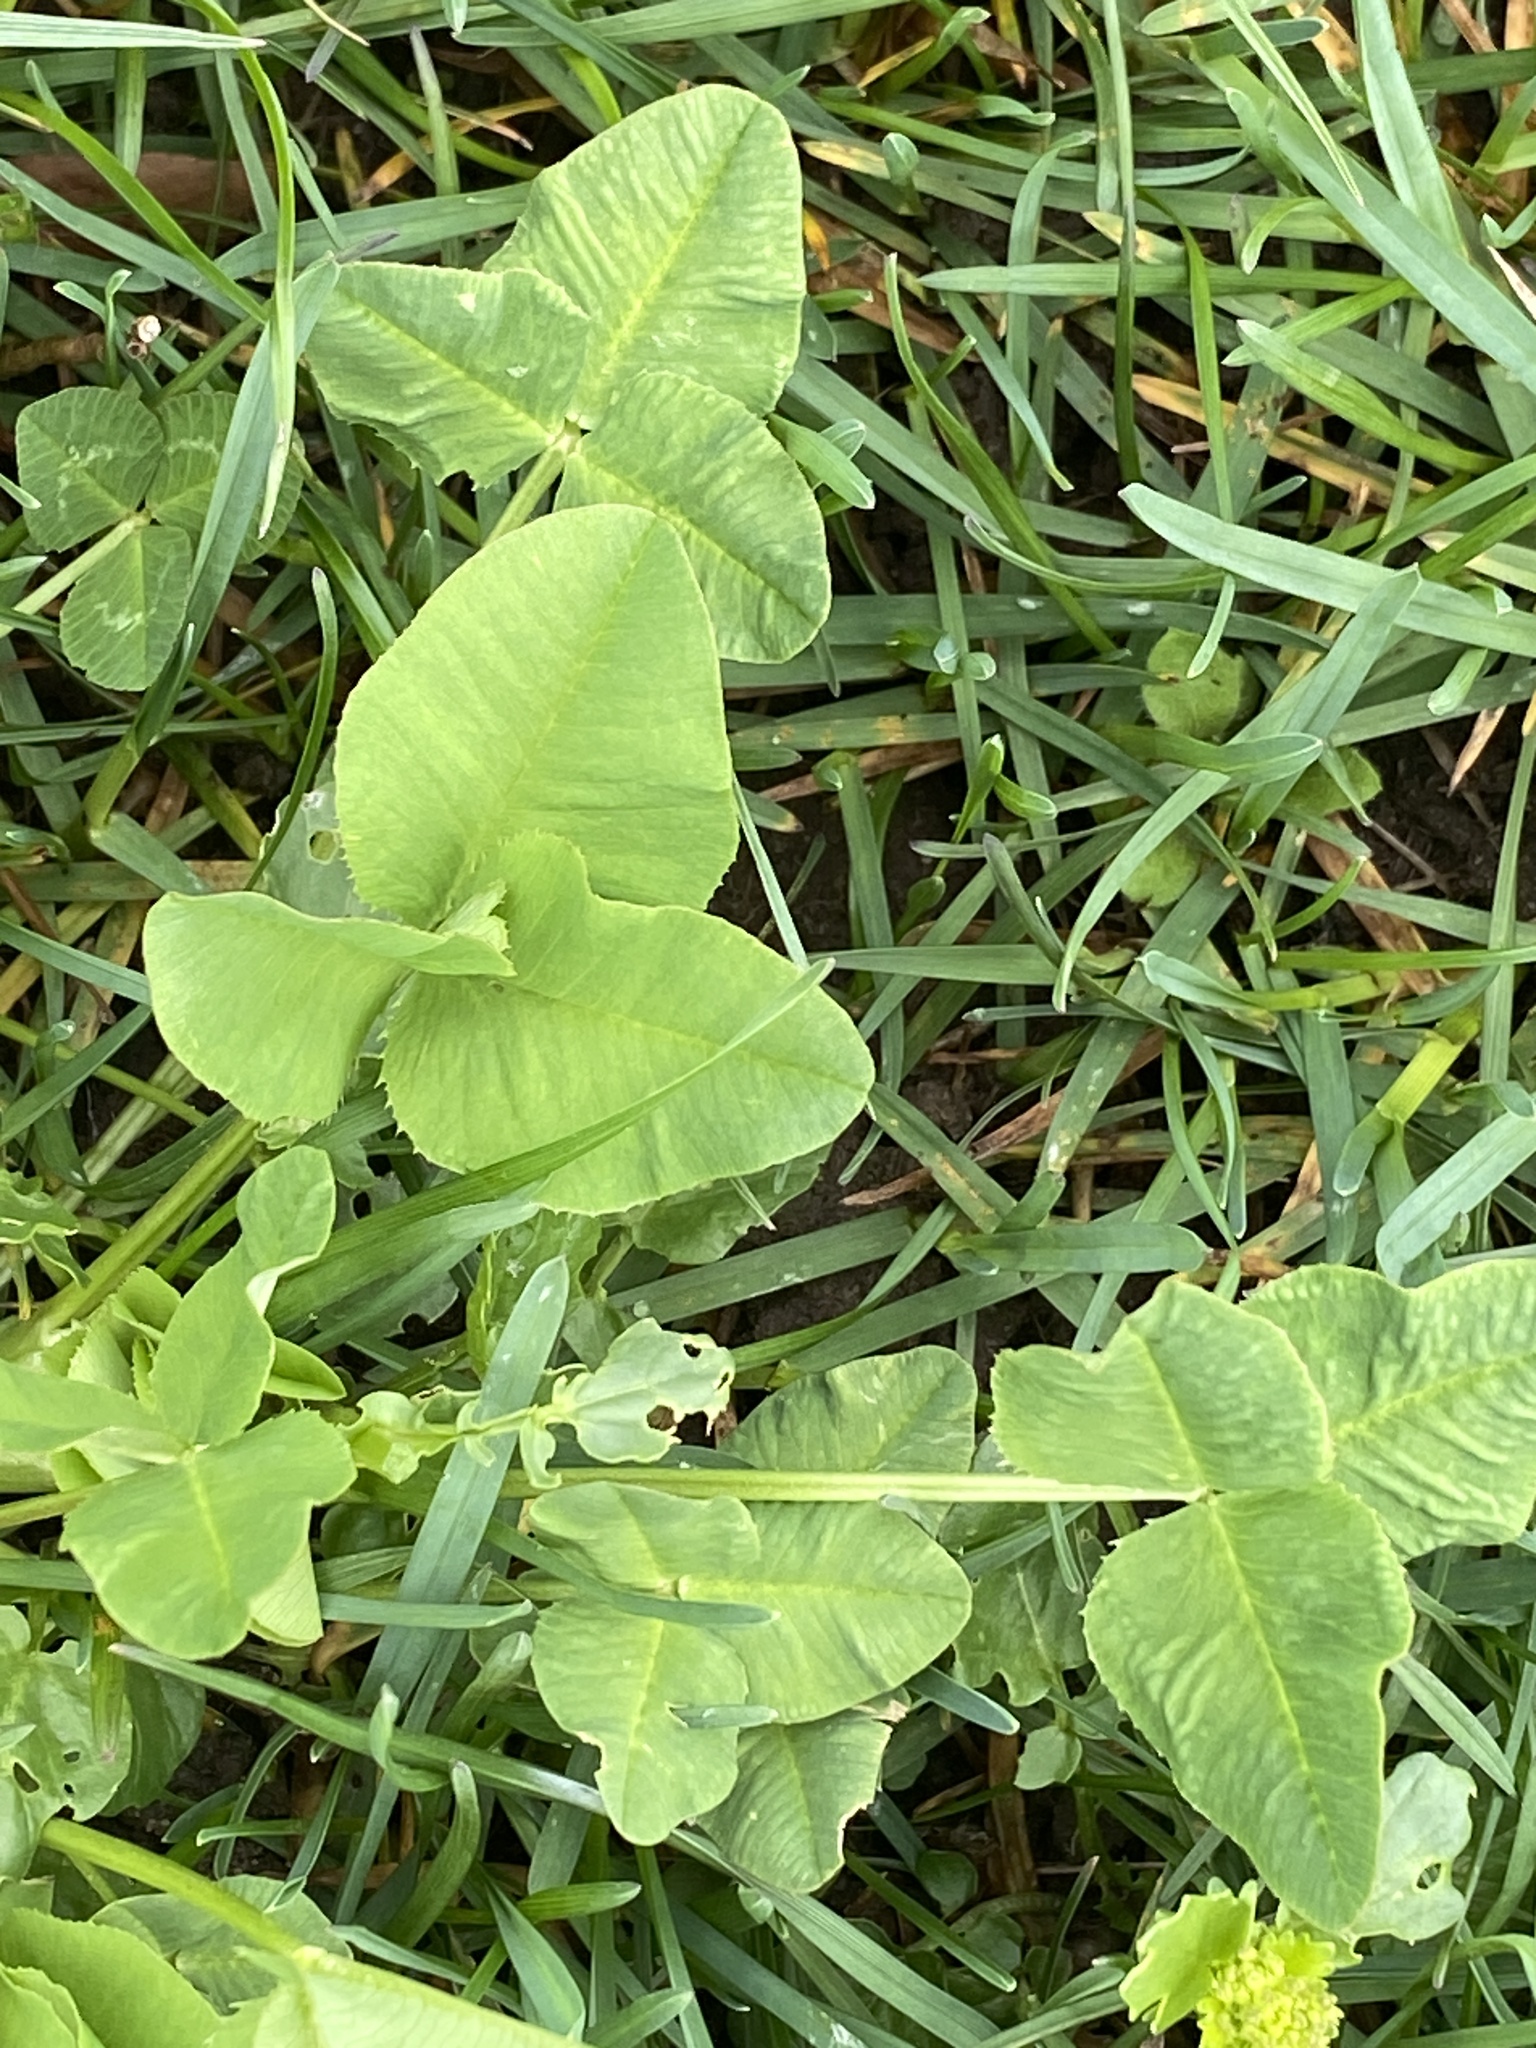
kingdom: Plantae
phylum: Tracheophyta
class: Magnoliopsida
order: Fabales
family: Fabaceae
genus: Trifolium
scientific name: Trifolium repens
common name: White clover
